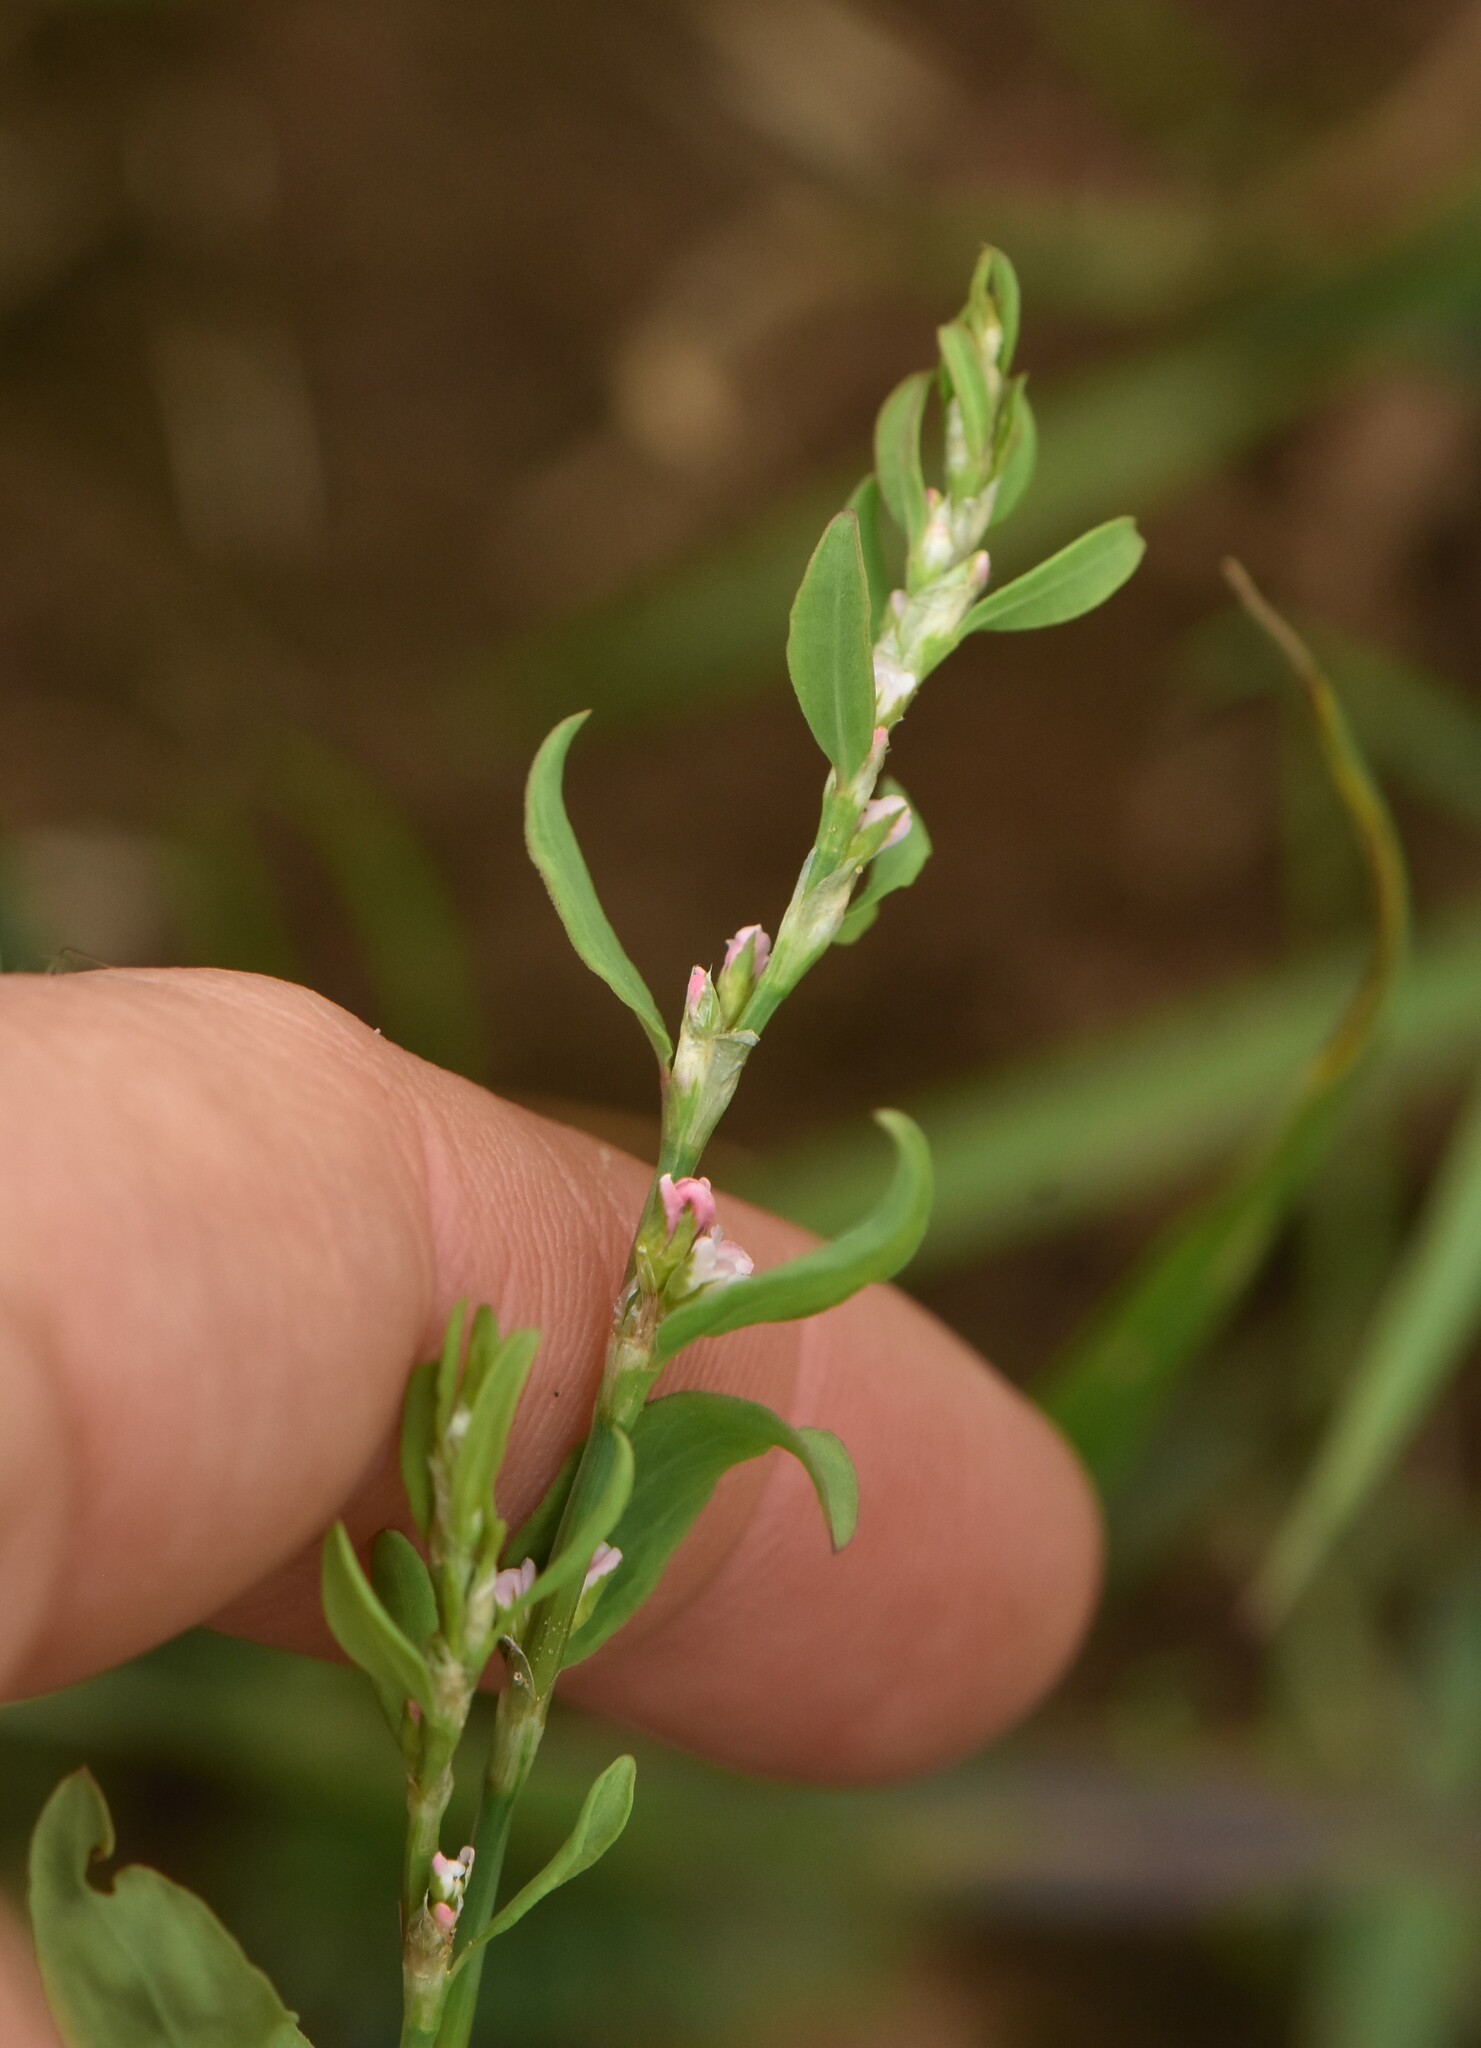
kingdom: Plantae
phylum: Tracheophyta
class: Magnoliopsida
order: Caryophyllales
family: Polygonaceae
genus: Polygonum
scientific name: Polygonum
